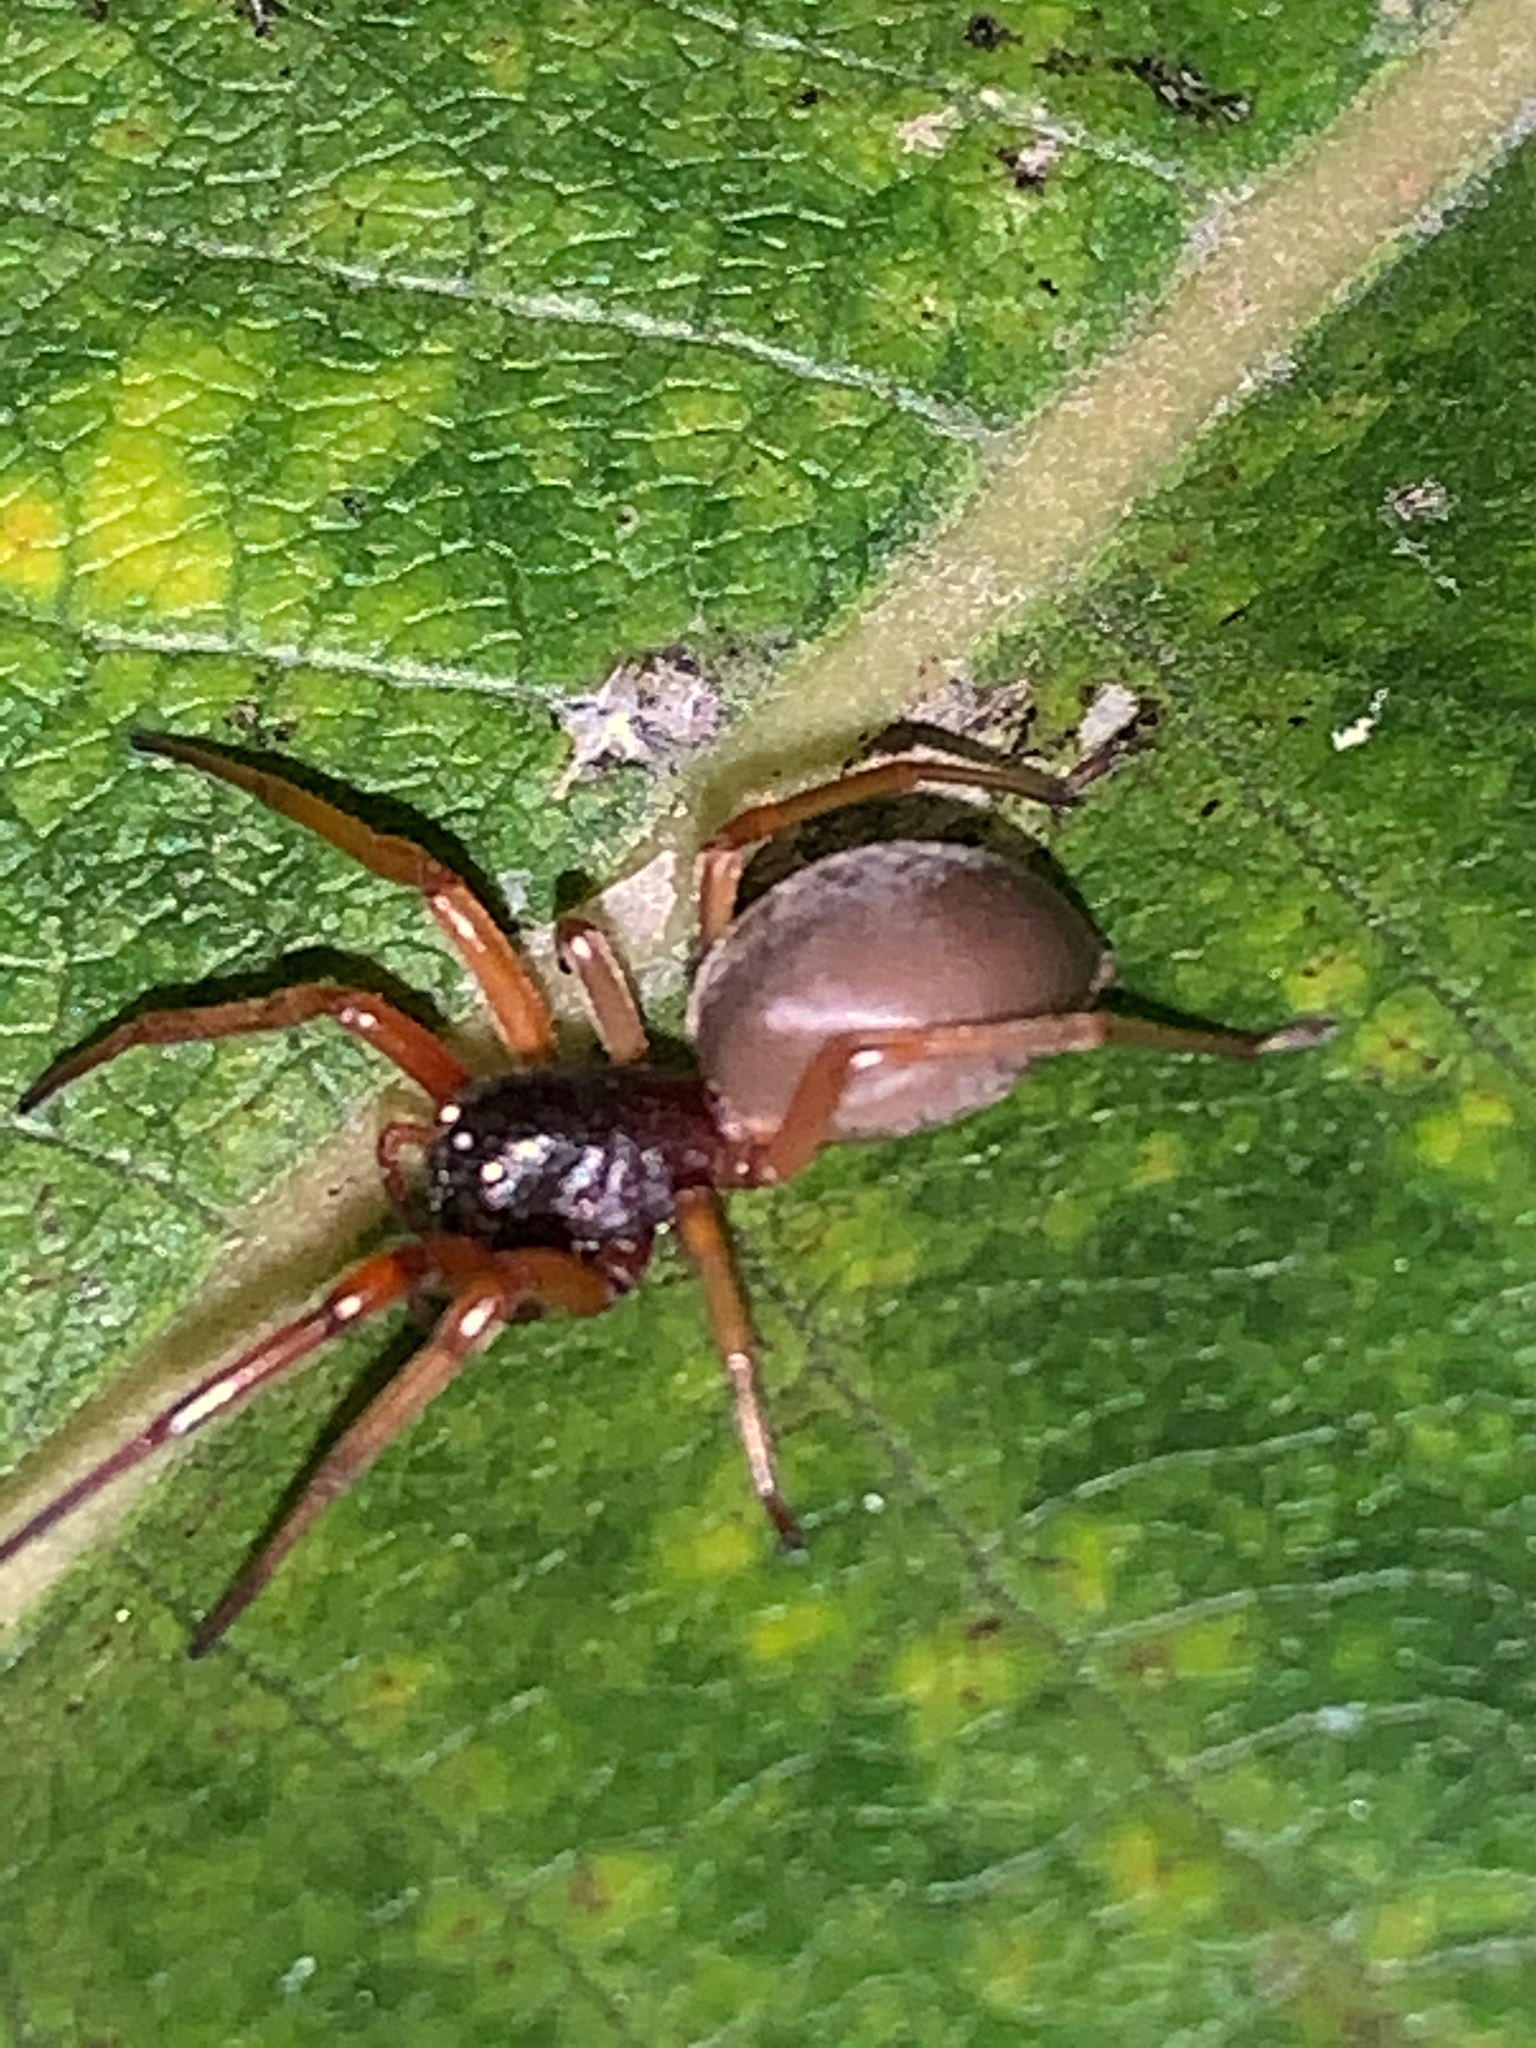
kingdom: Animalia
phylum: Arthropoda
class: Arachnida
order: Araneae
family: Trachelidae
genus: Trachelas
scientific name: Trachelas tranquillus
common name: Broad-faced sac spider
